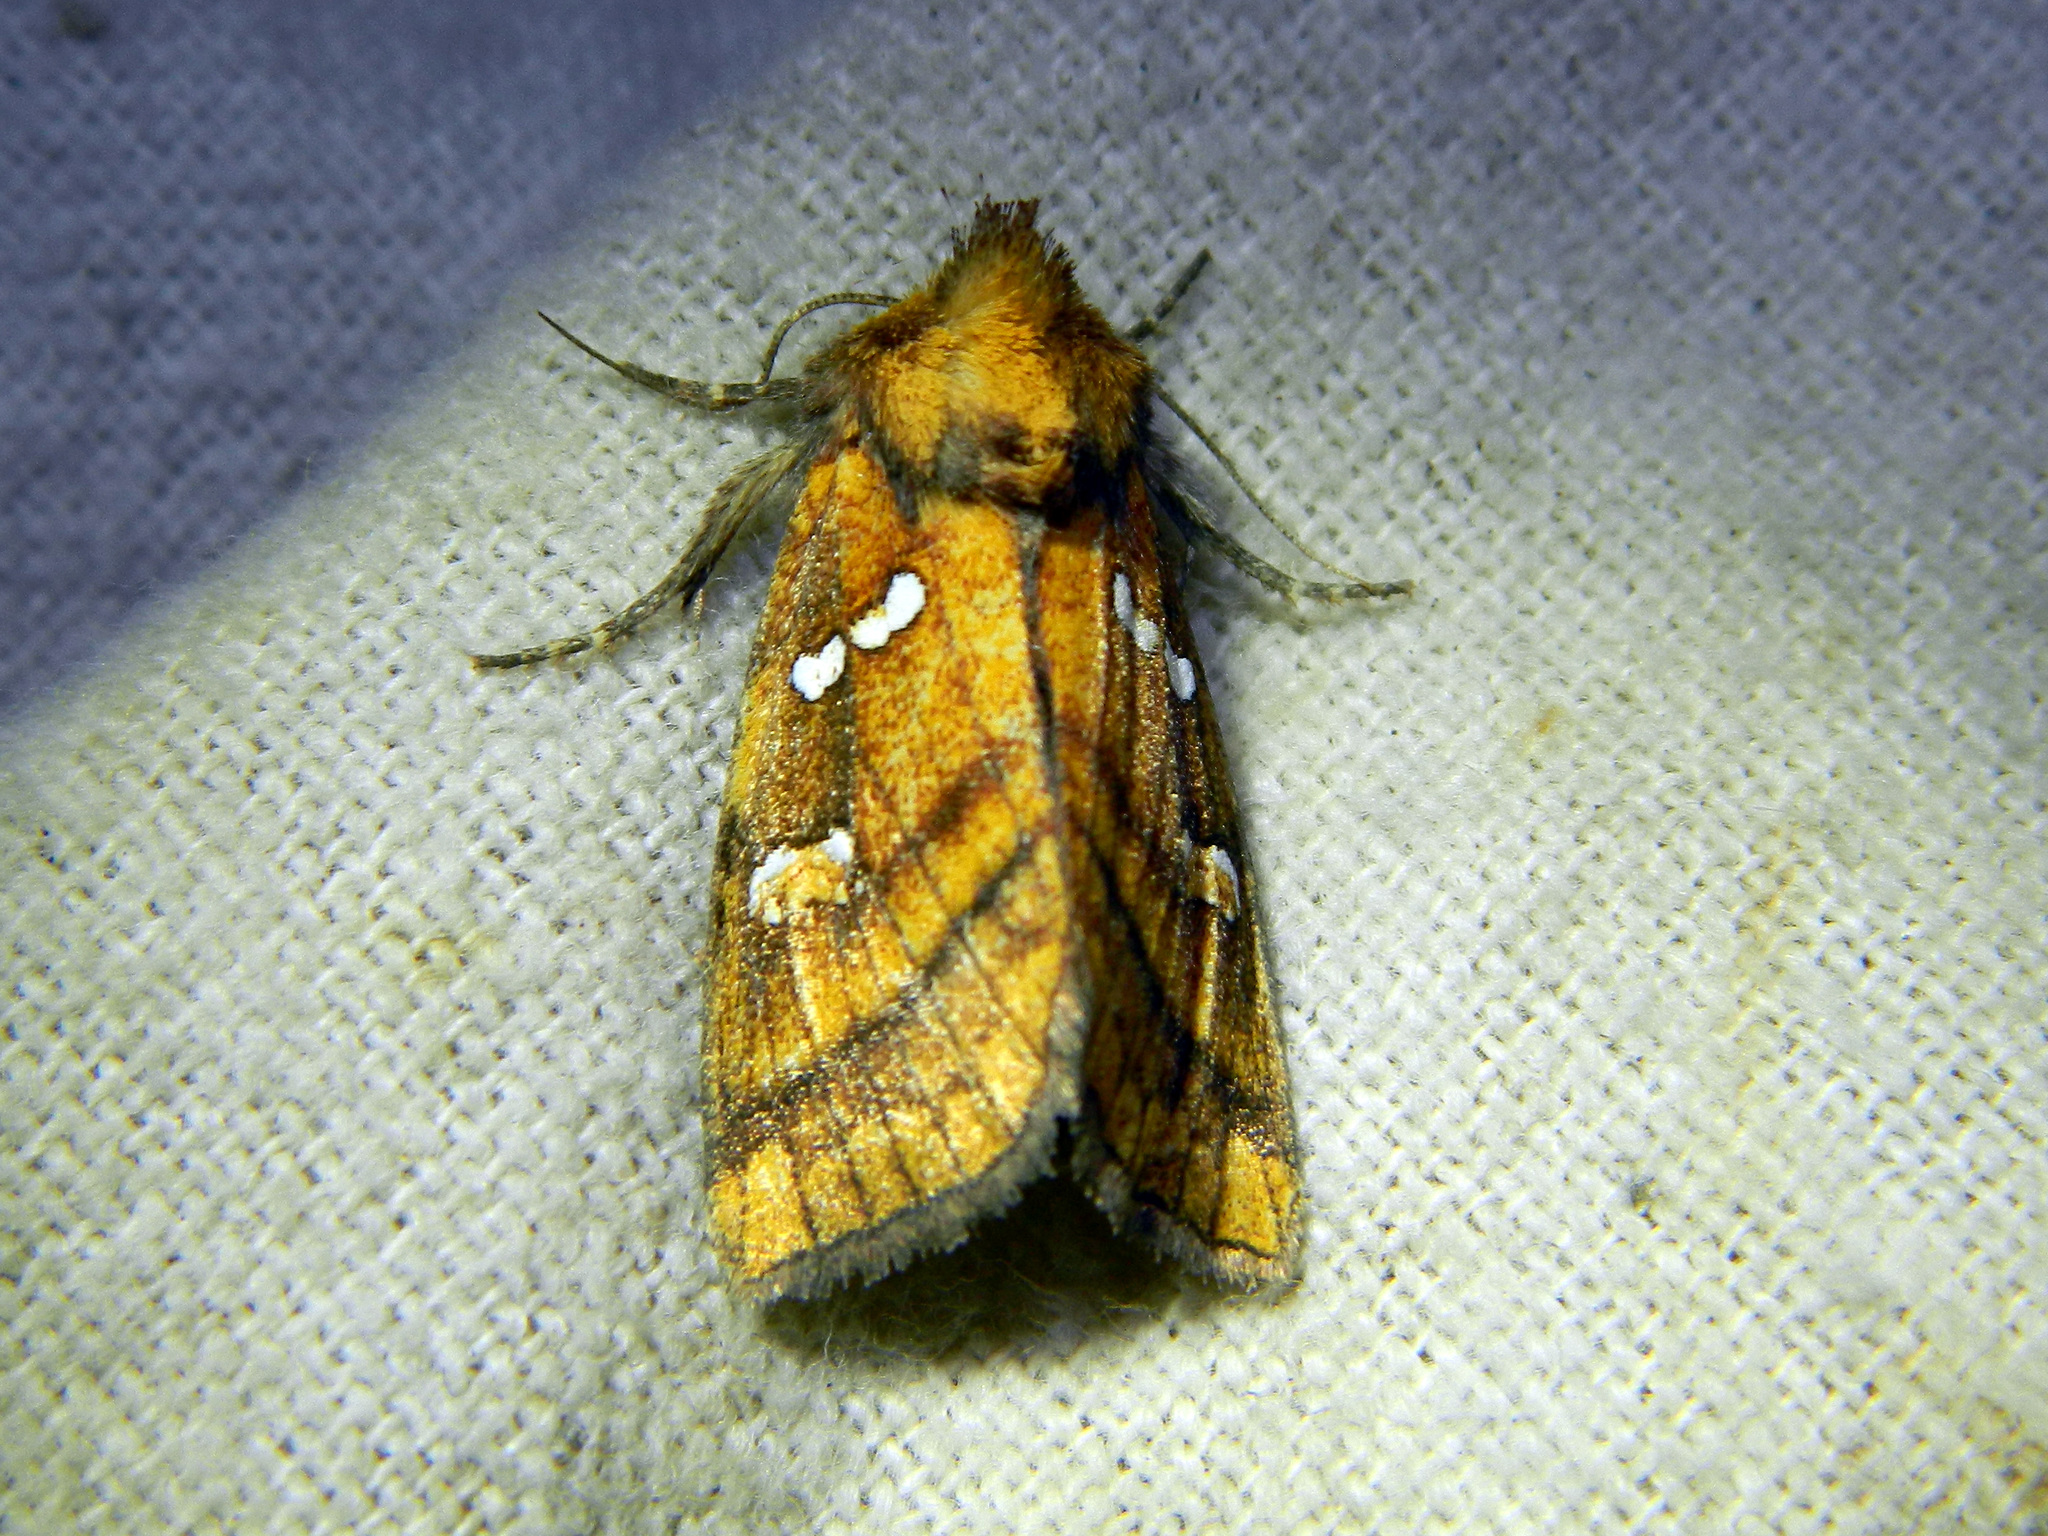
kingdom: Animalia
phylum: Arthropoda
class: Insecta
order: Lepidoptera
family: Noctuidae
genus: Papaipema
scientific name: Papaipema pterisii
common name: Bracken borer moth
